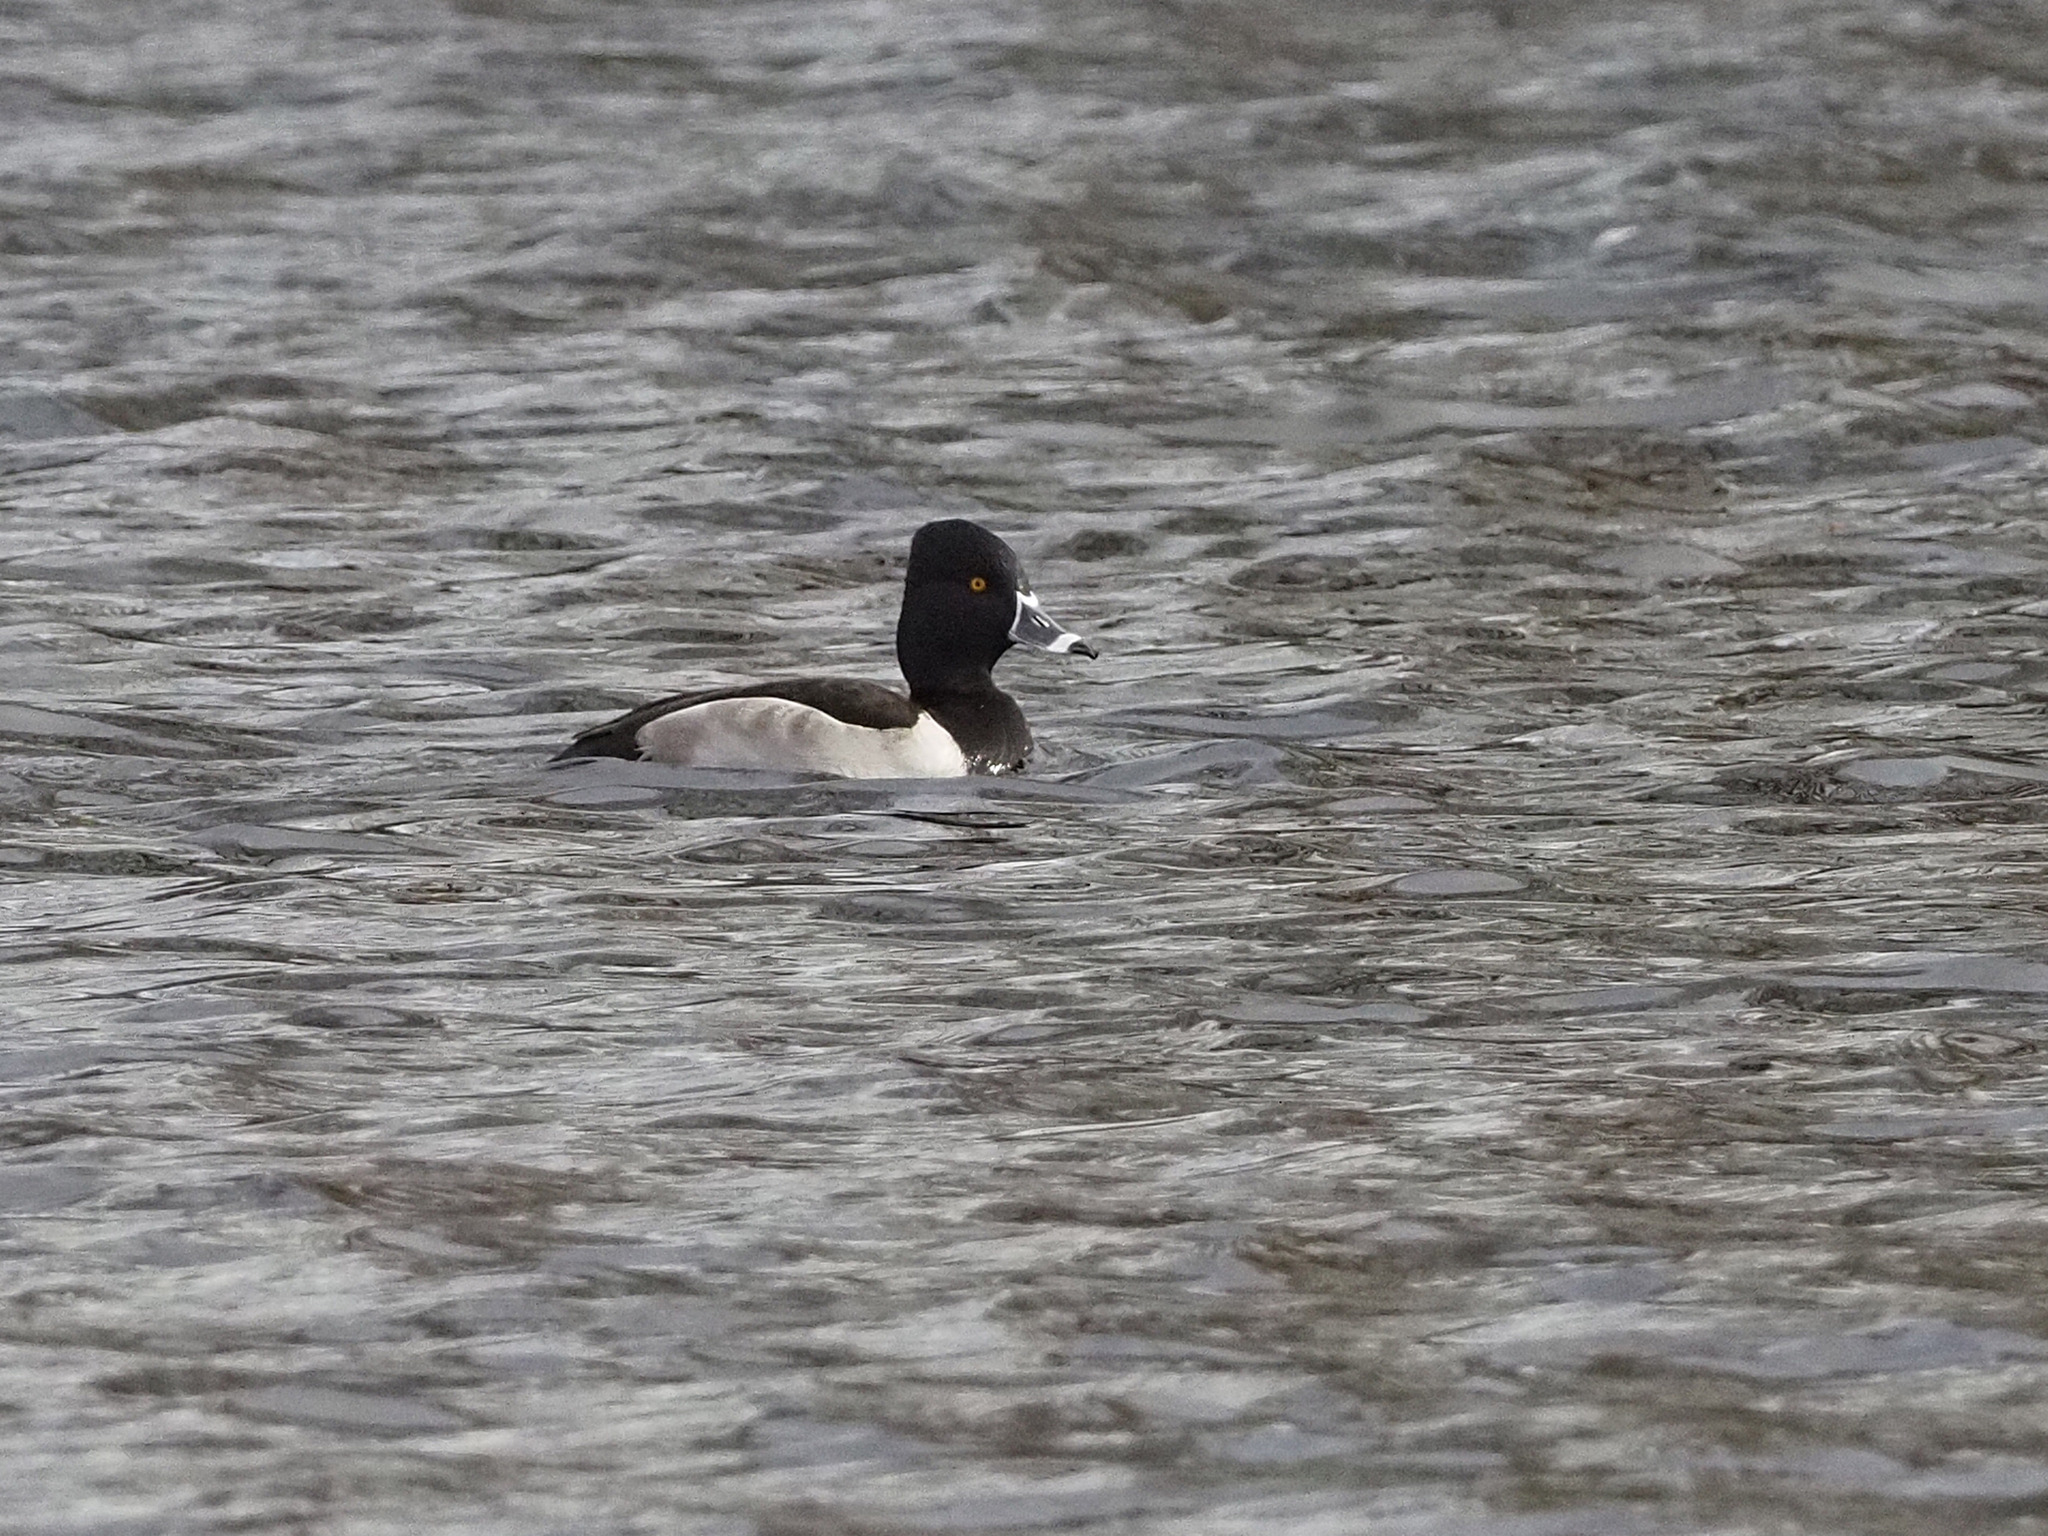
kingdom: Animalia
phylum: Chordata
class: Aves
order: Anseriformes
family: Anatidae
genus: Aythya
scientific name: Aythya collaris
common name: Ring-necked duck
